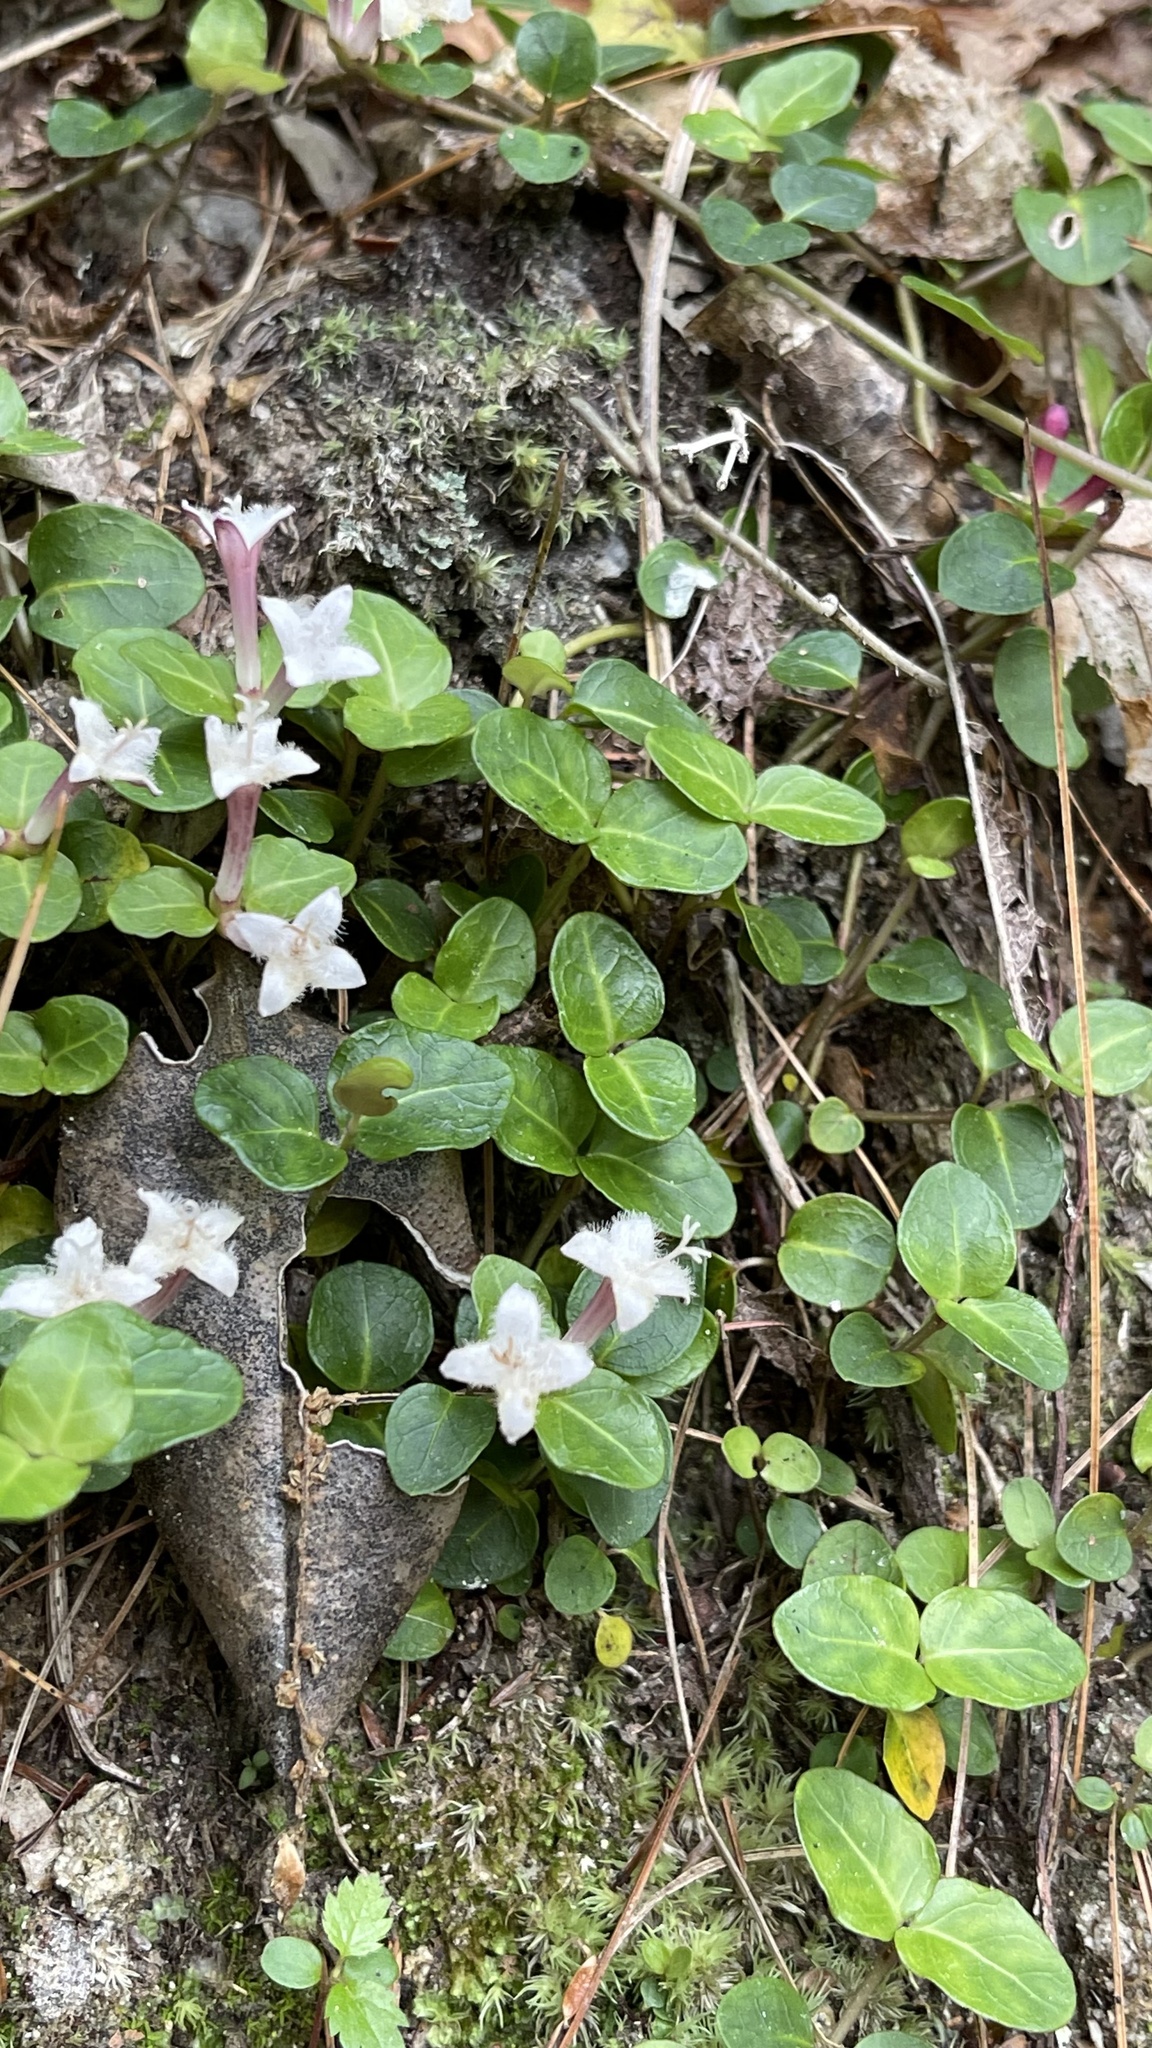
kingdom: Plantae
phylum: Tracheophyta
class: Magnoliopsida
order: Gentianales
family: Rubiaceae
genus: Mitchella
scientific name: Mitchella repens
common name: Partridge-berry
